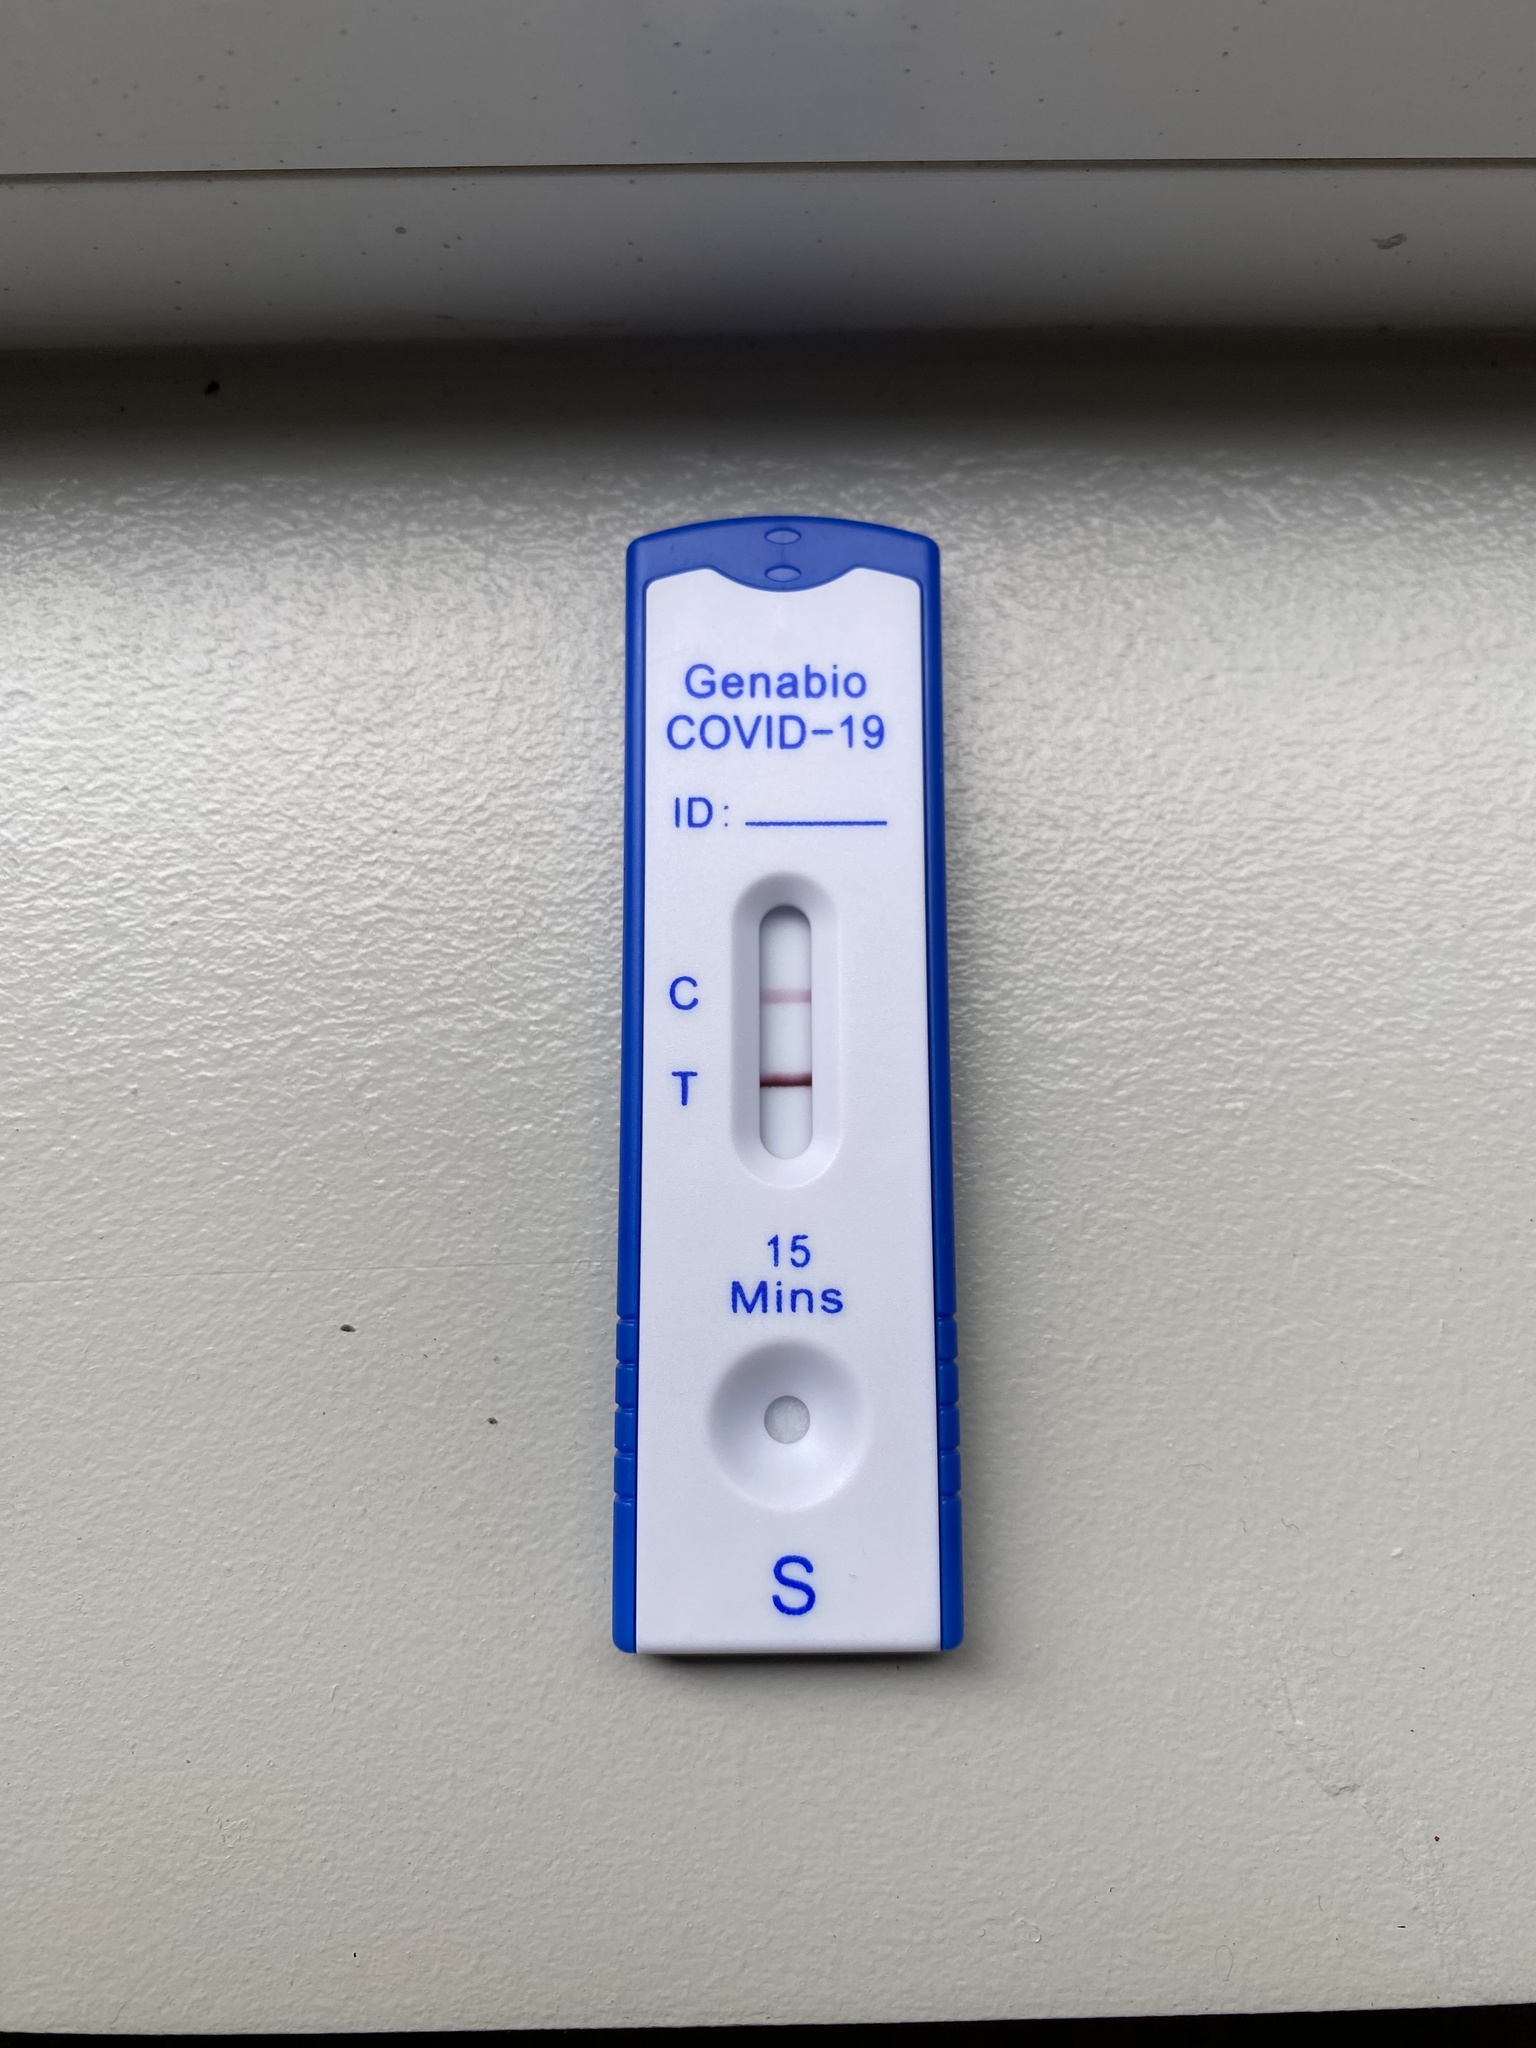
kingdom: Viruses
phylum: Pisuviricota
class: Pisoniviricetes
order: Nidovirales
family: Coronaviridae
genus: Betacoronavirus
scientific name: Betacoronavirus
